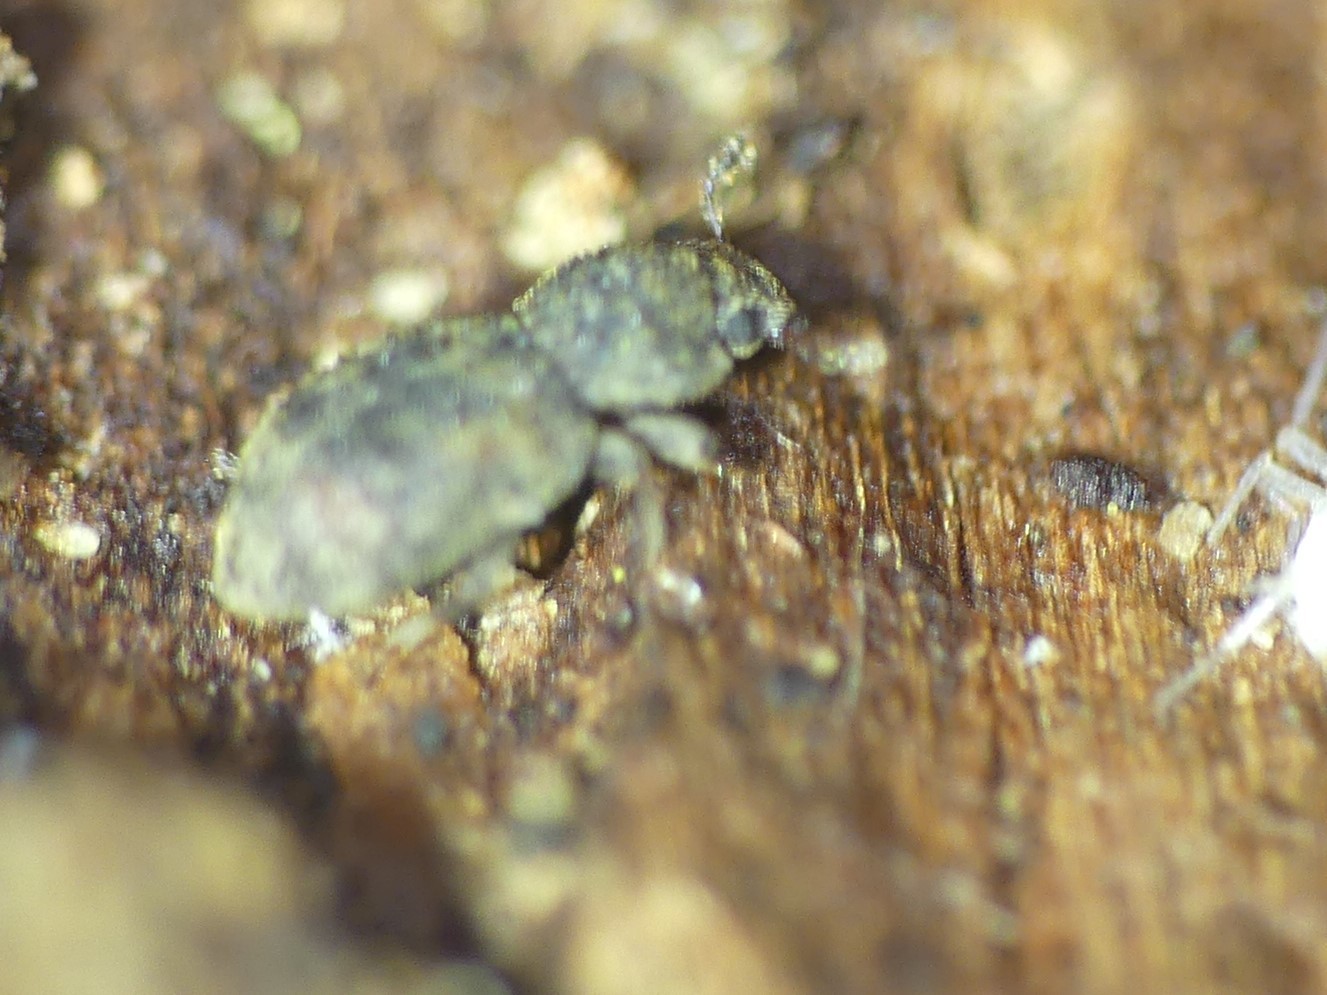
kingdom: Animalia
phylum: Arthropoda
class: Insecta
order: Coleoptera
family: Zopheridae
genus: Coxelus
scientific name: Coxelus pictus
